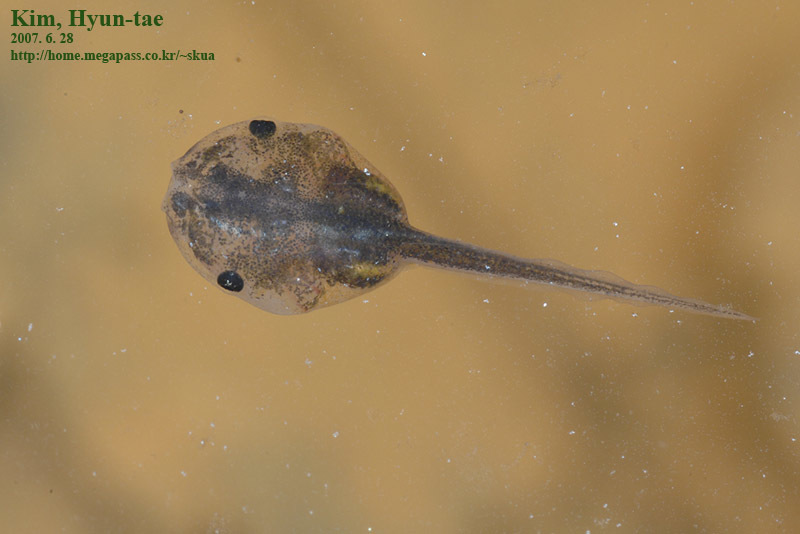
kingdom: Animalia
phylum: Chordata
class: Amphibia
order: Anura
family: Microhylidae
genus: Kaloula
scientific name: Kaloula borealis
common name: Boreal digging frog
